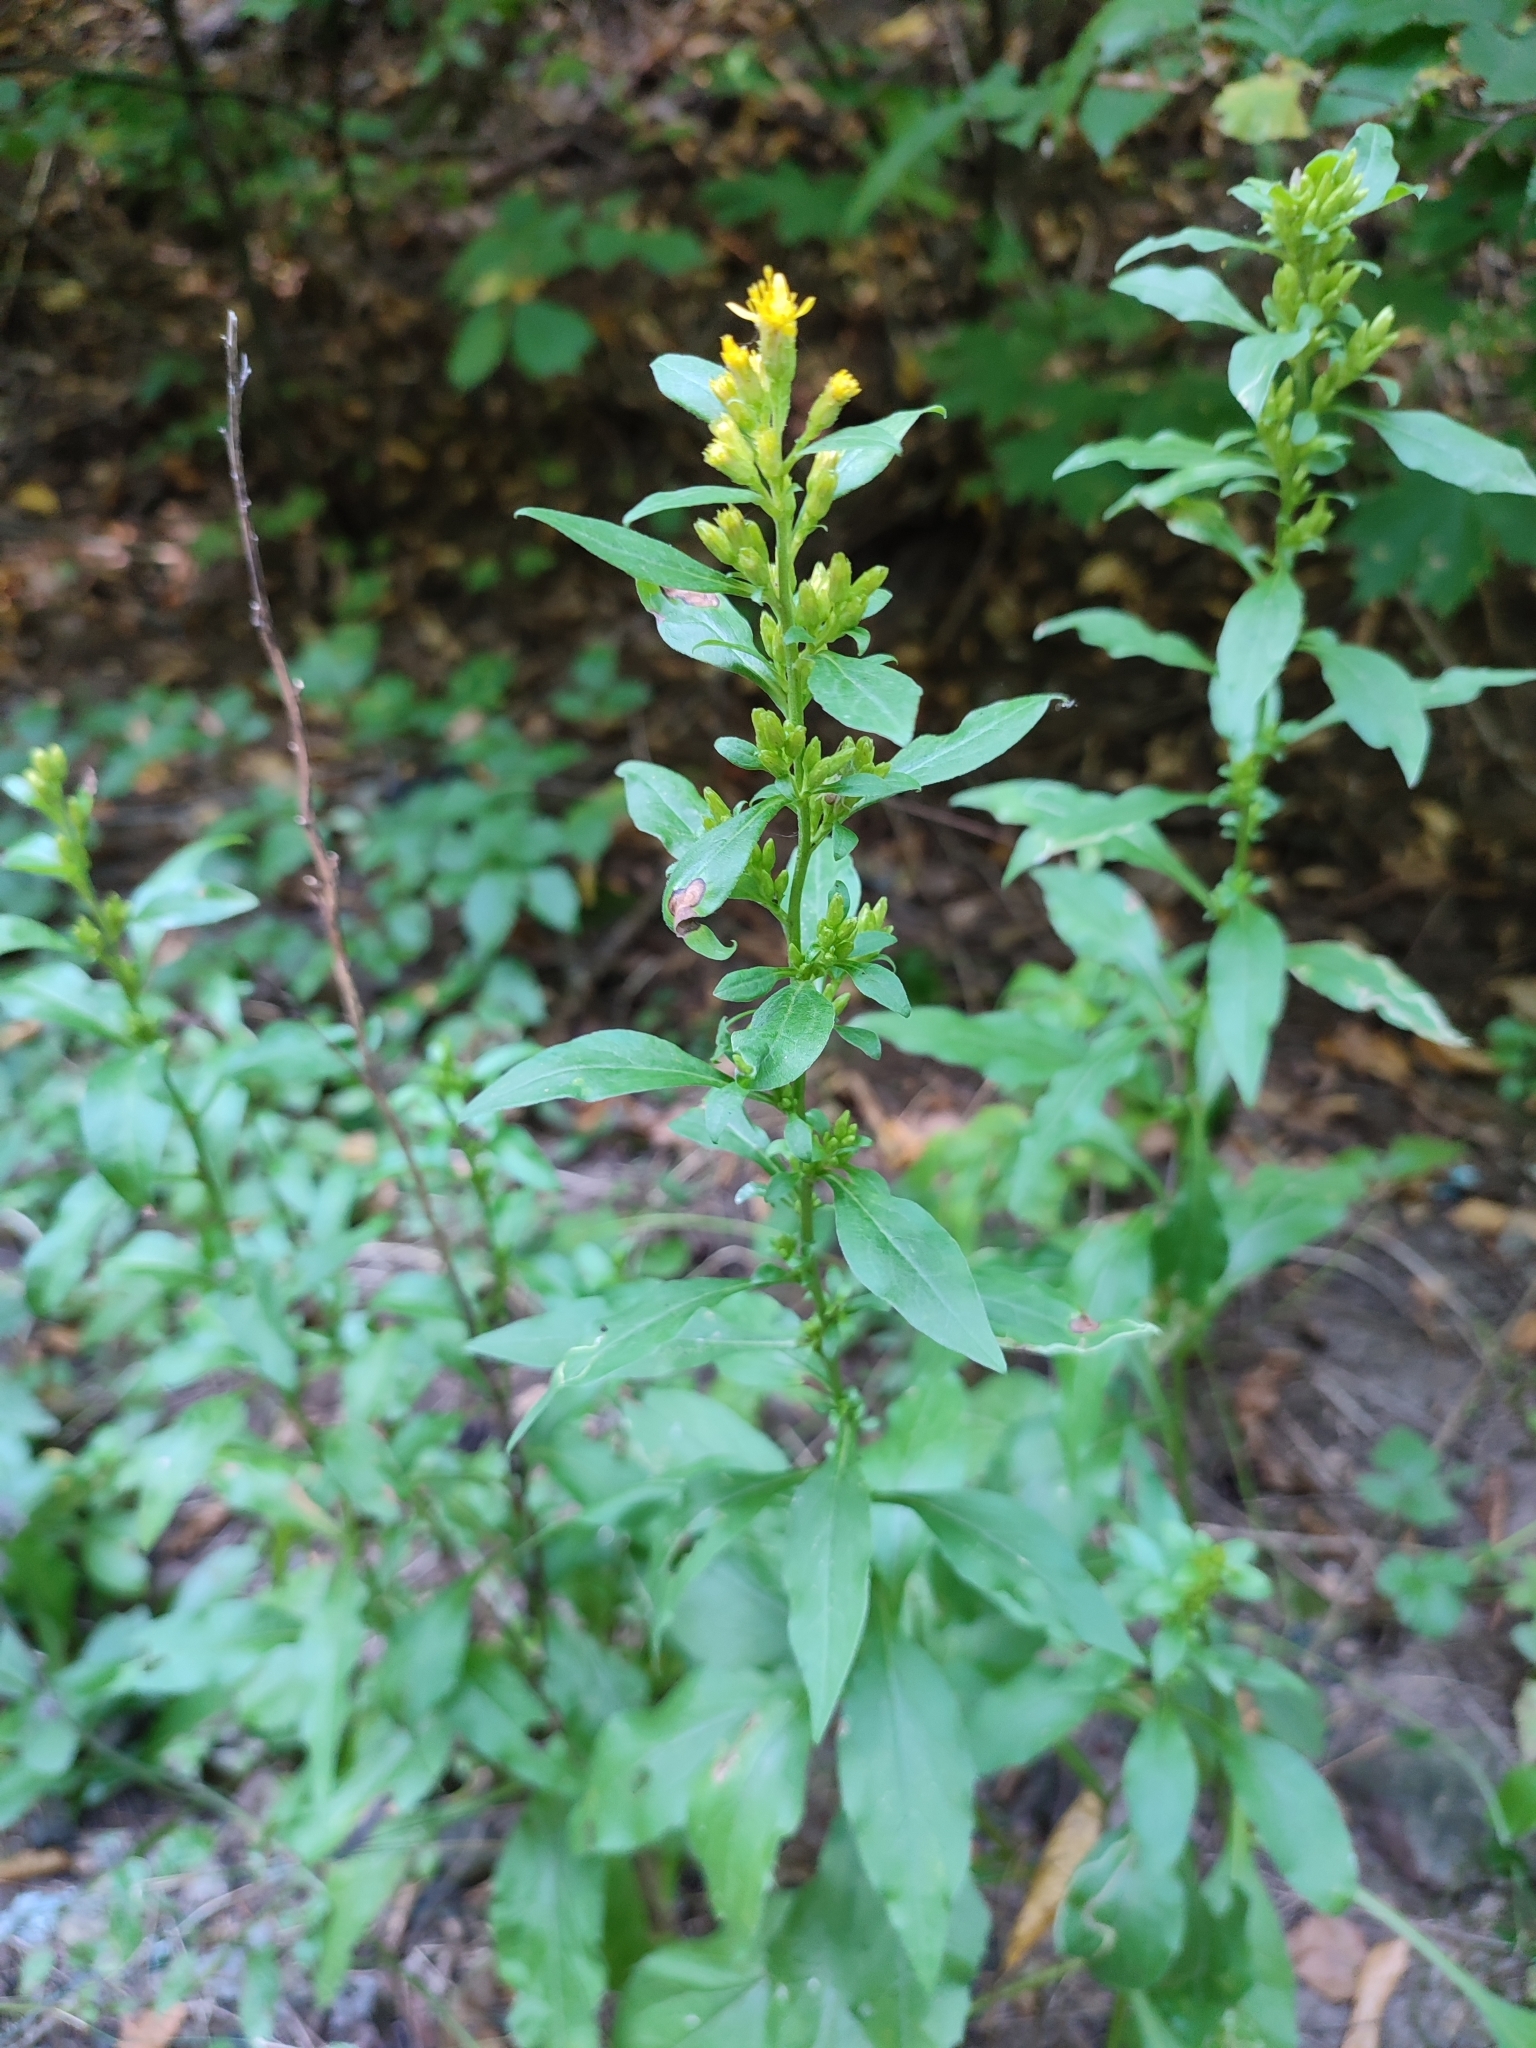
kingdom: Plantae
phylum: Tracheophyta
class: Magnoliopsida
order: Asterales
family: Asteraceae
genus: Solidago
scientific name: Solidago virgaurea
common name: Goldenrod
